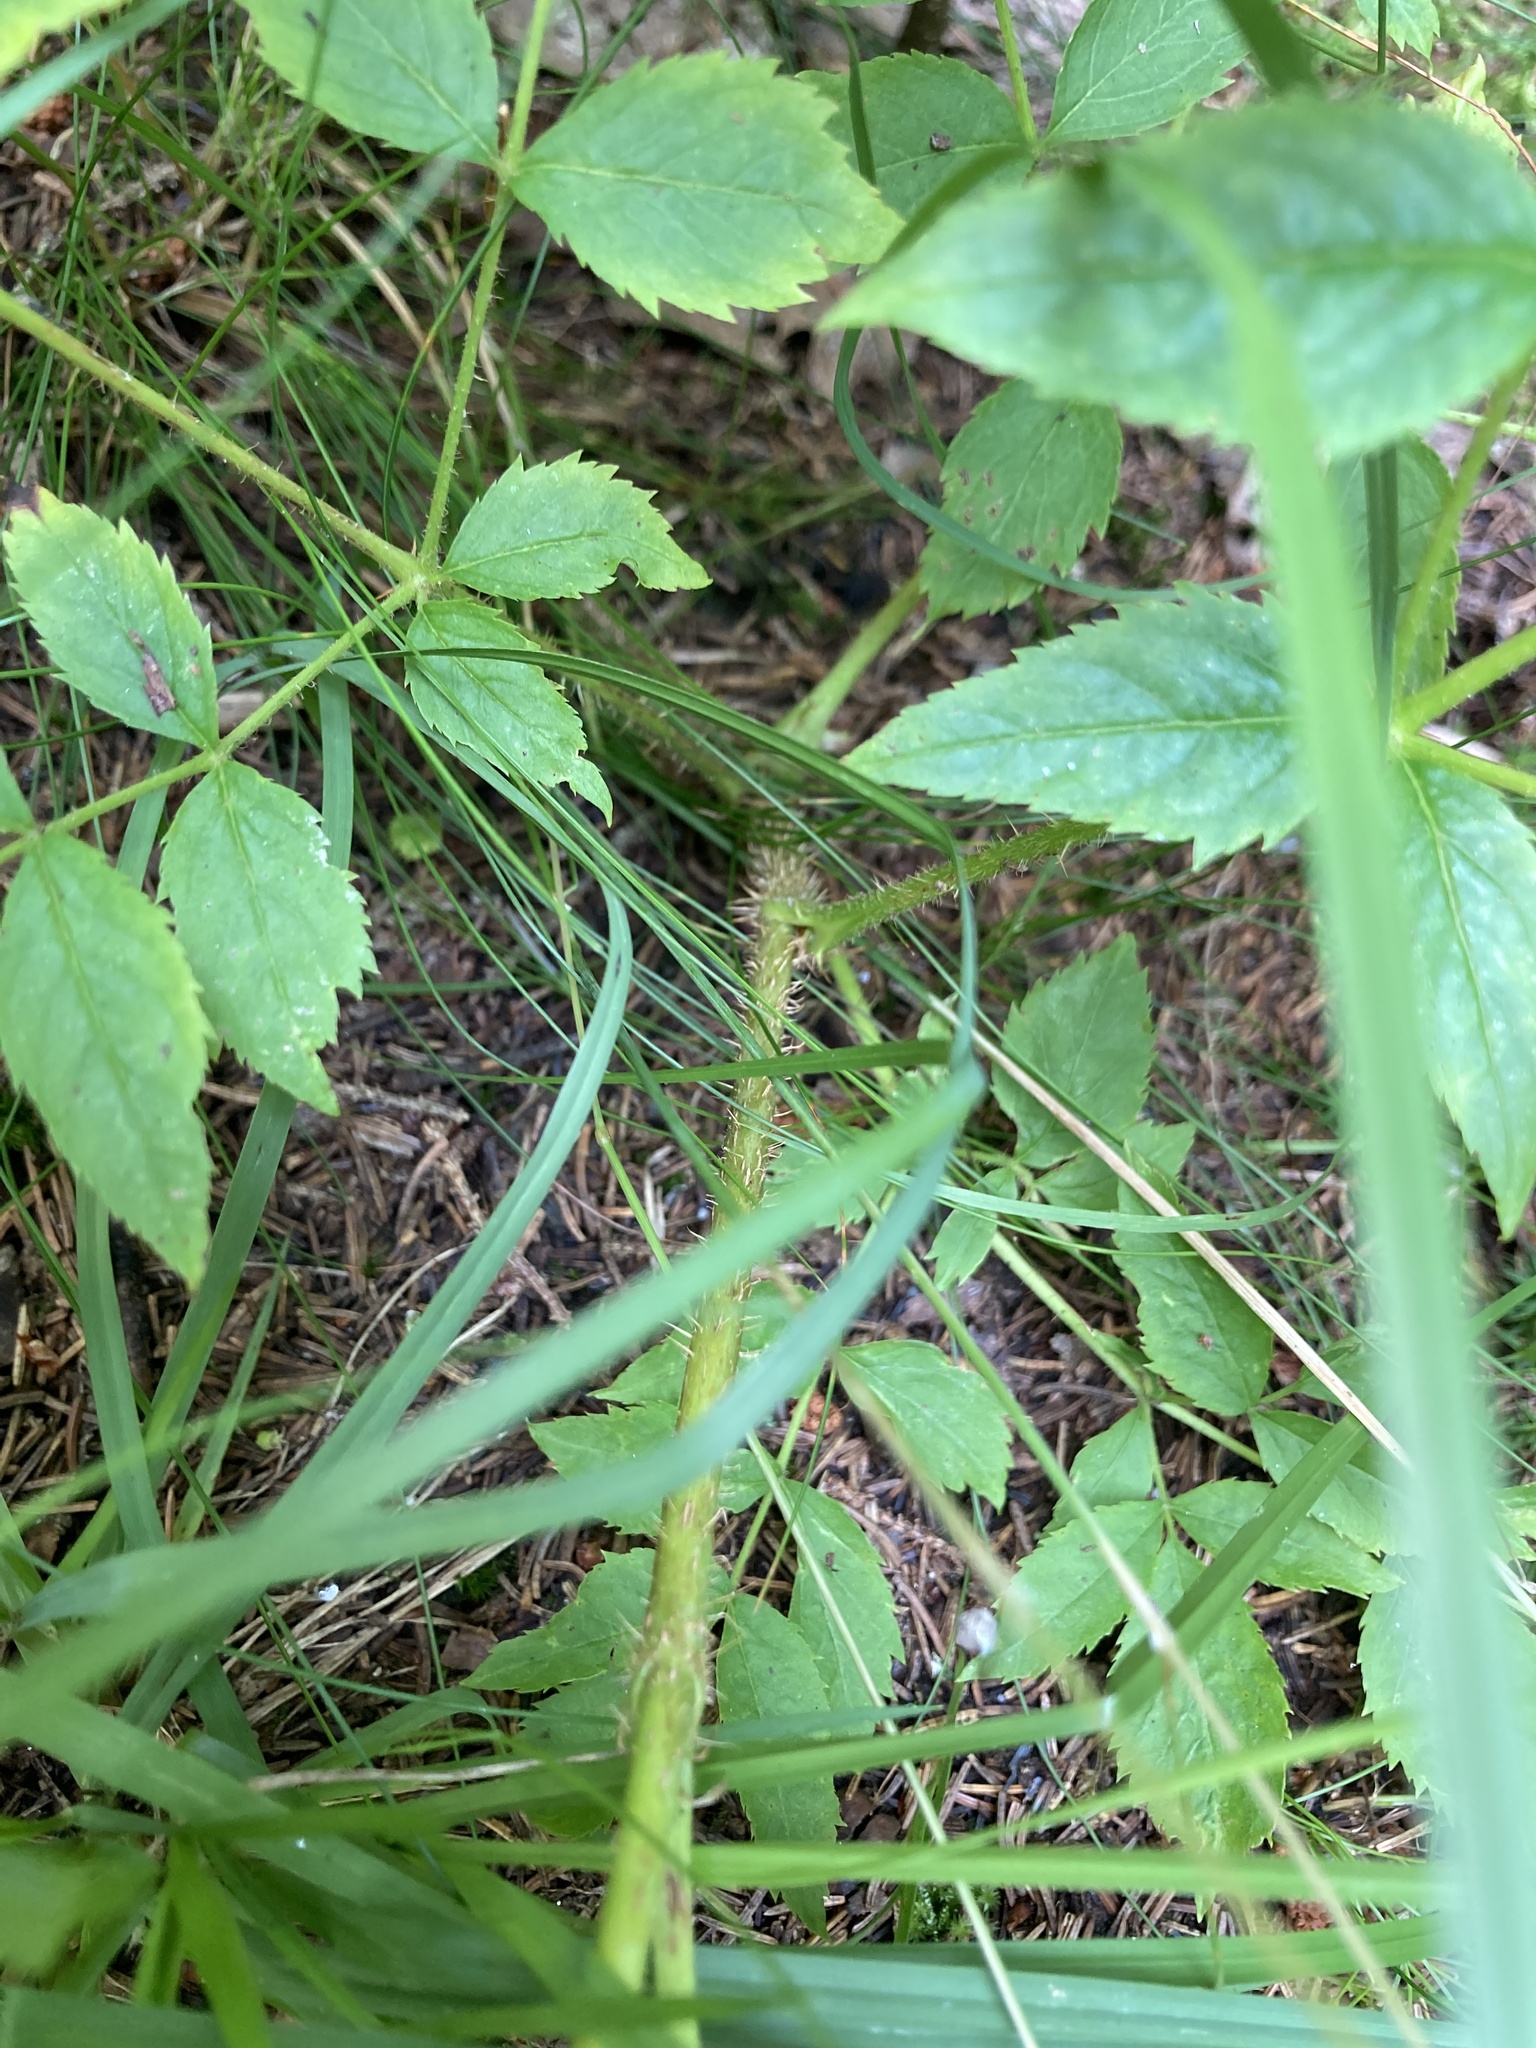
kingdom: Plantae
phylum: Tracheophyta
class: Magnoliopsida
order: Apiales
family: Araliaceae
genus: Aralia
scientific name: Aralia hispida
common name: Bristly sarsaparilla
